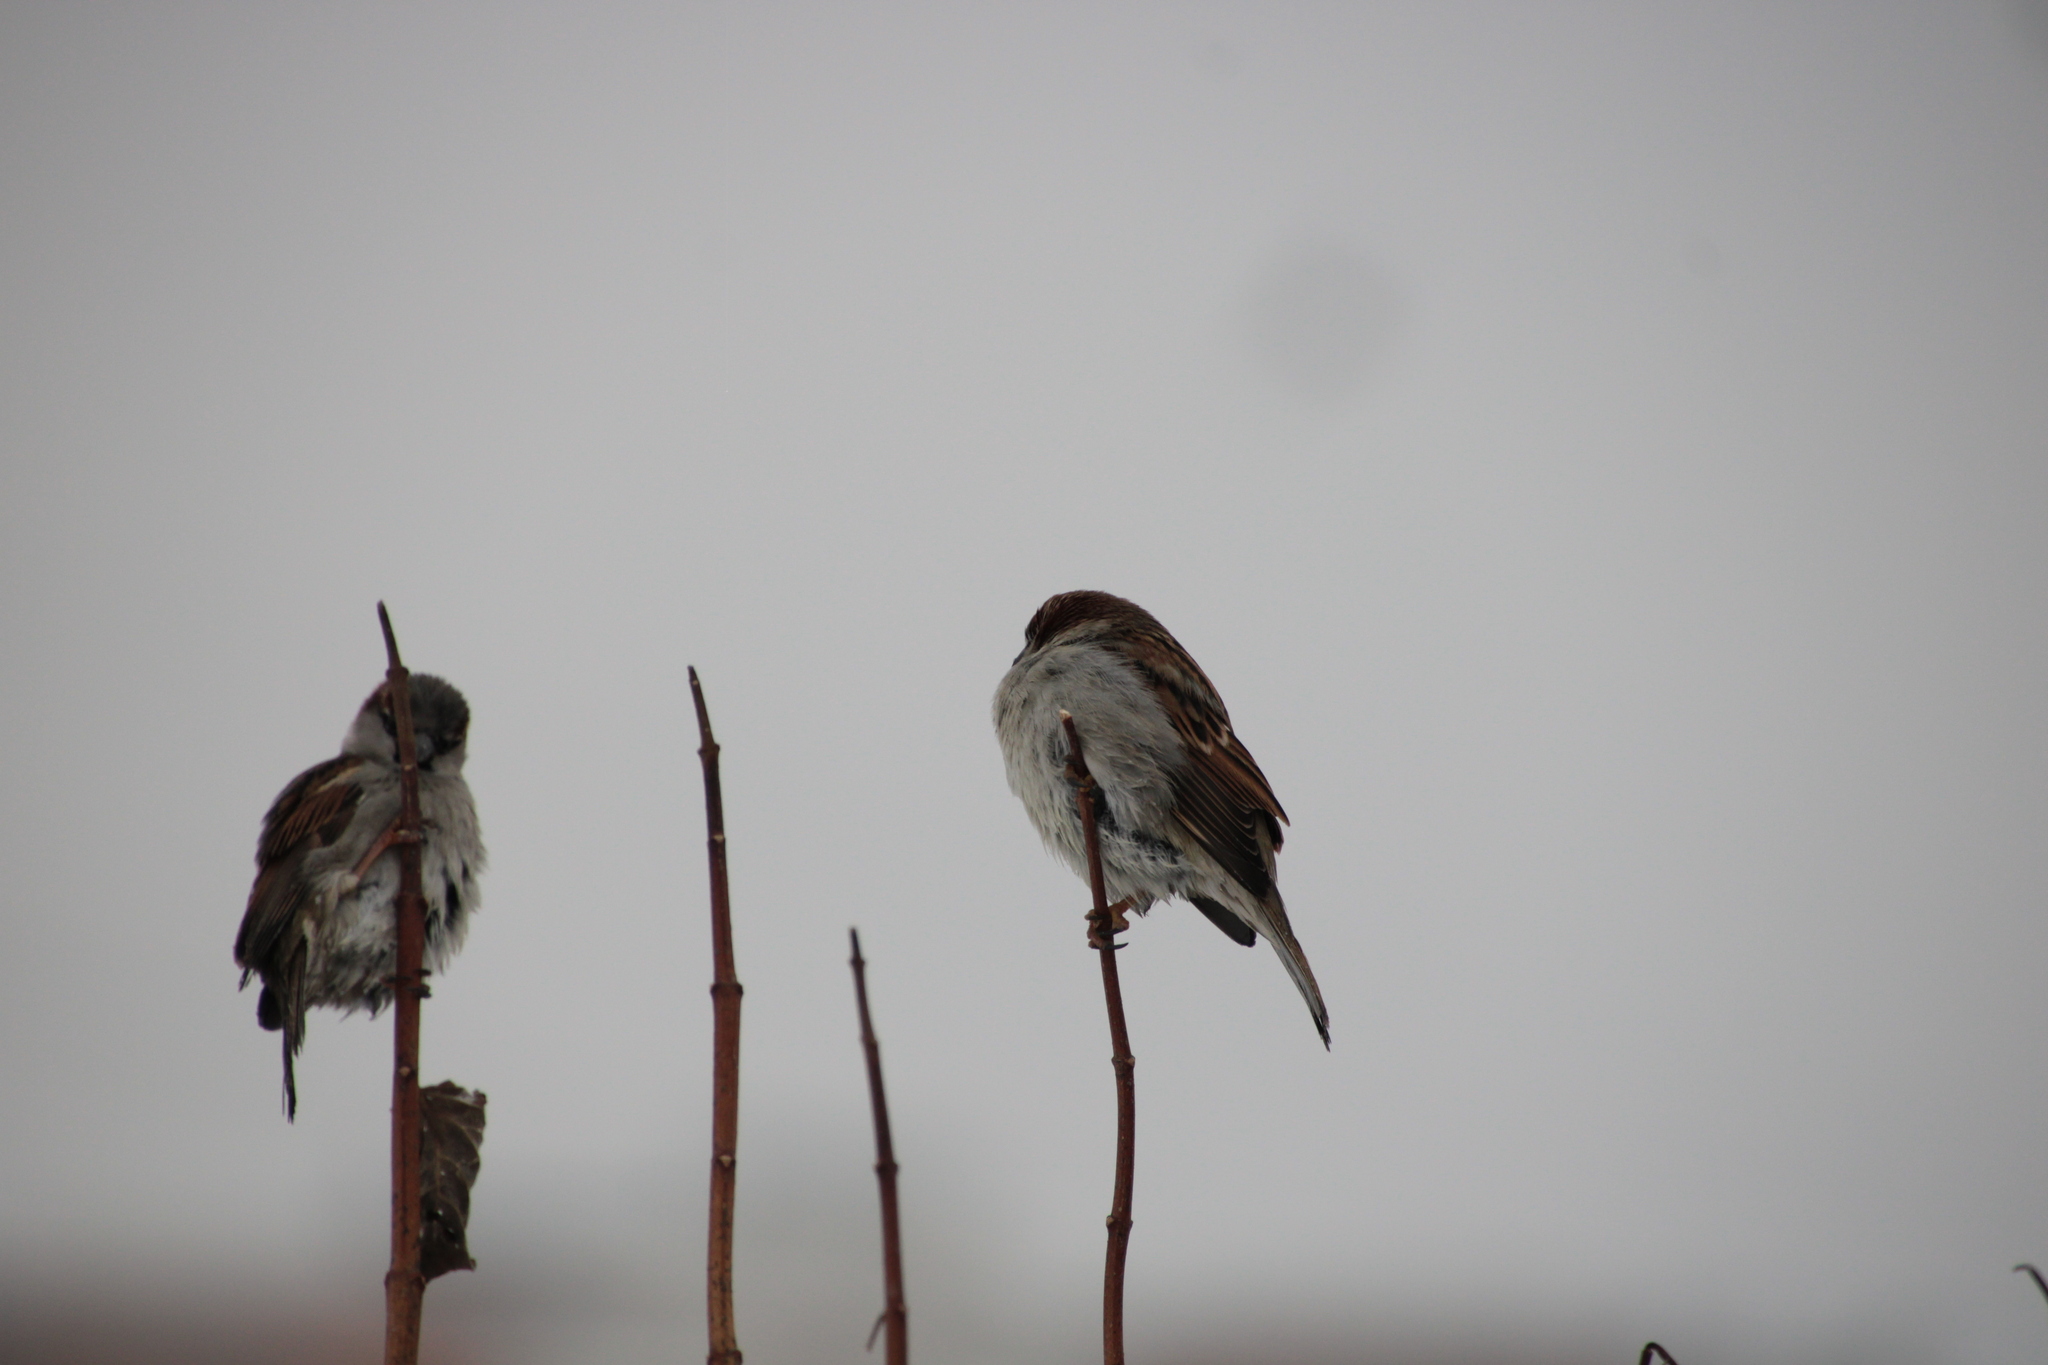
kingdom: Animalia
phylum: Chordata
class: Aves
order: Passeriformes
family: Passeridae
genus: Passer
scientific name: Passer domesticus
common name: House sparrow
